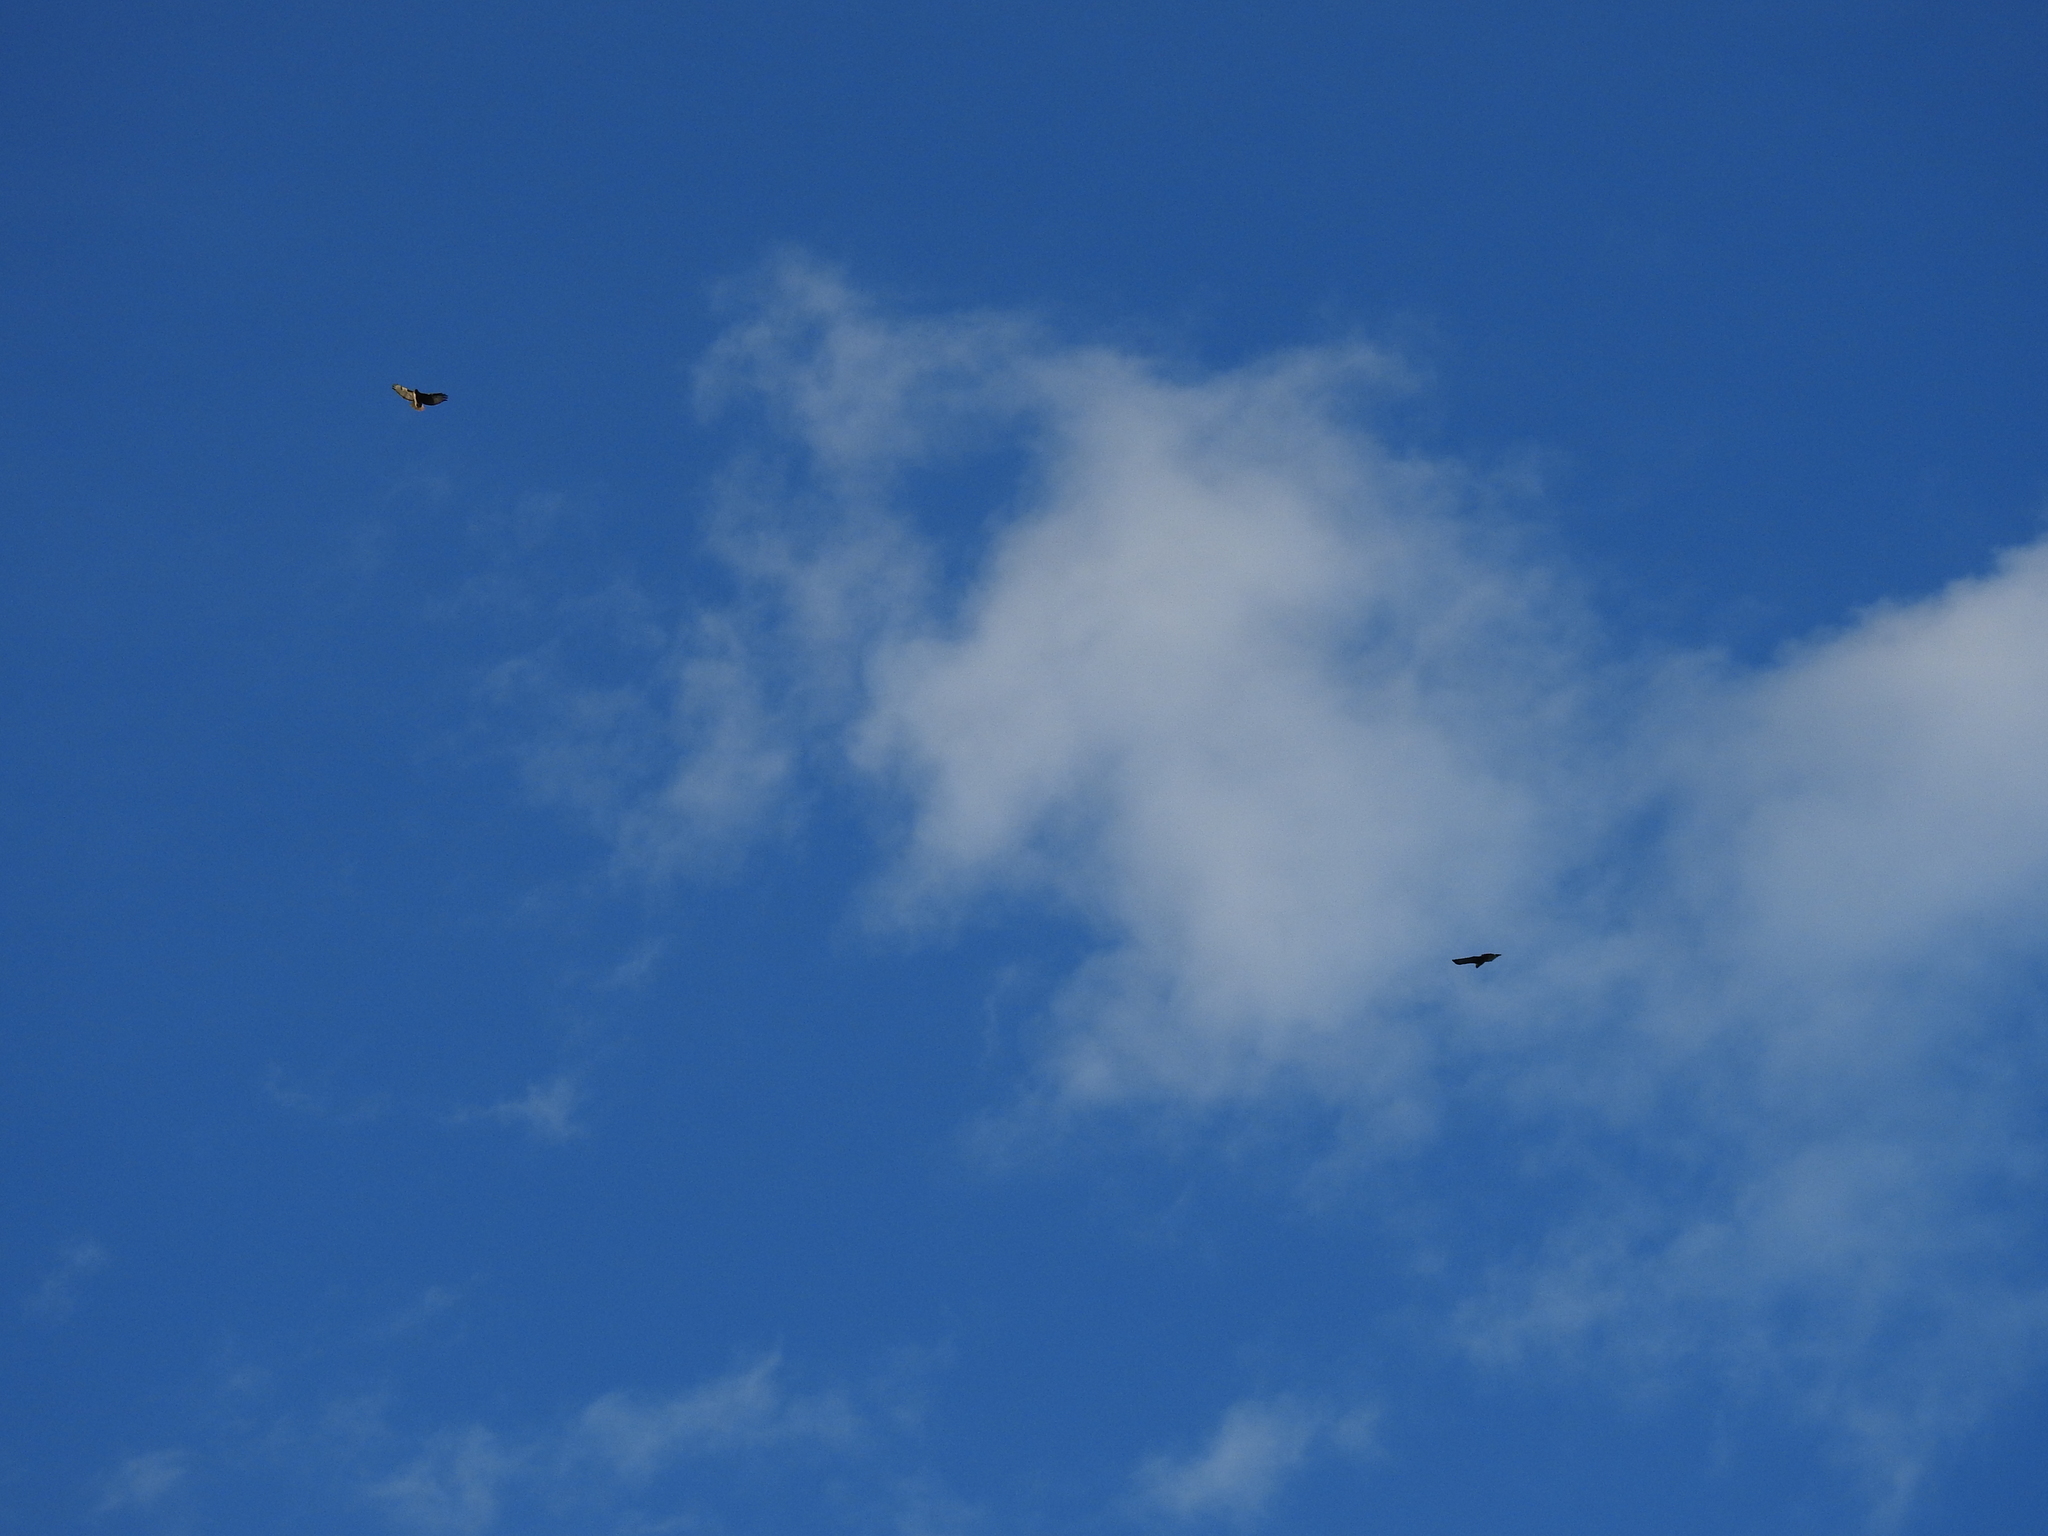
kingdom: Animalia
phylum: Chordata
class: Aves
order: Accipitriformes
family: Accipitridae
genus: Buteo
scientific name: Buteo jamaicensis
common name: Red-tailed hawk
